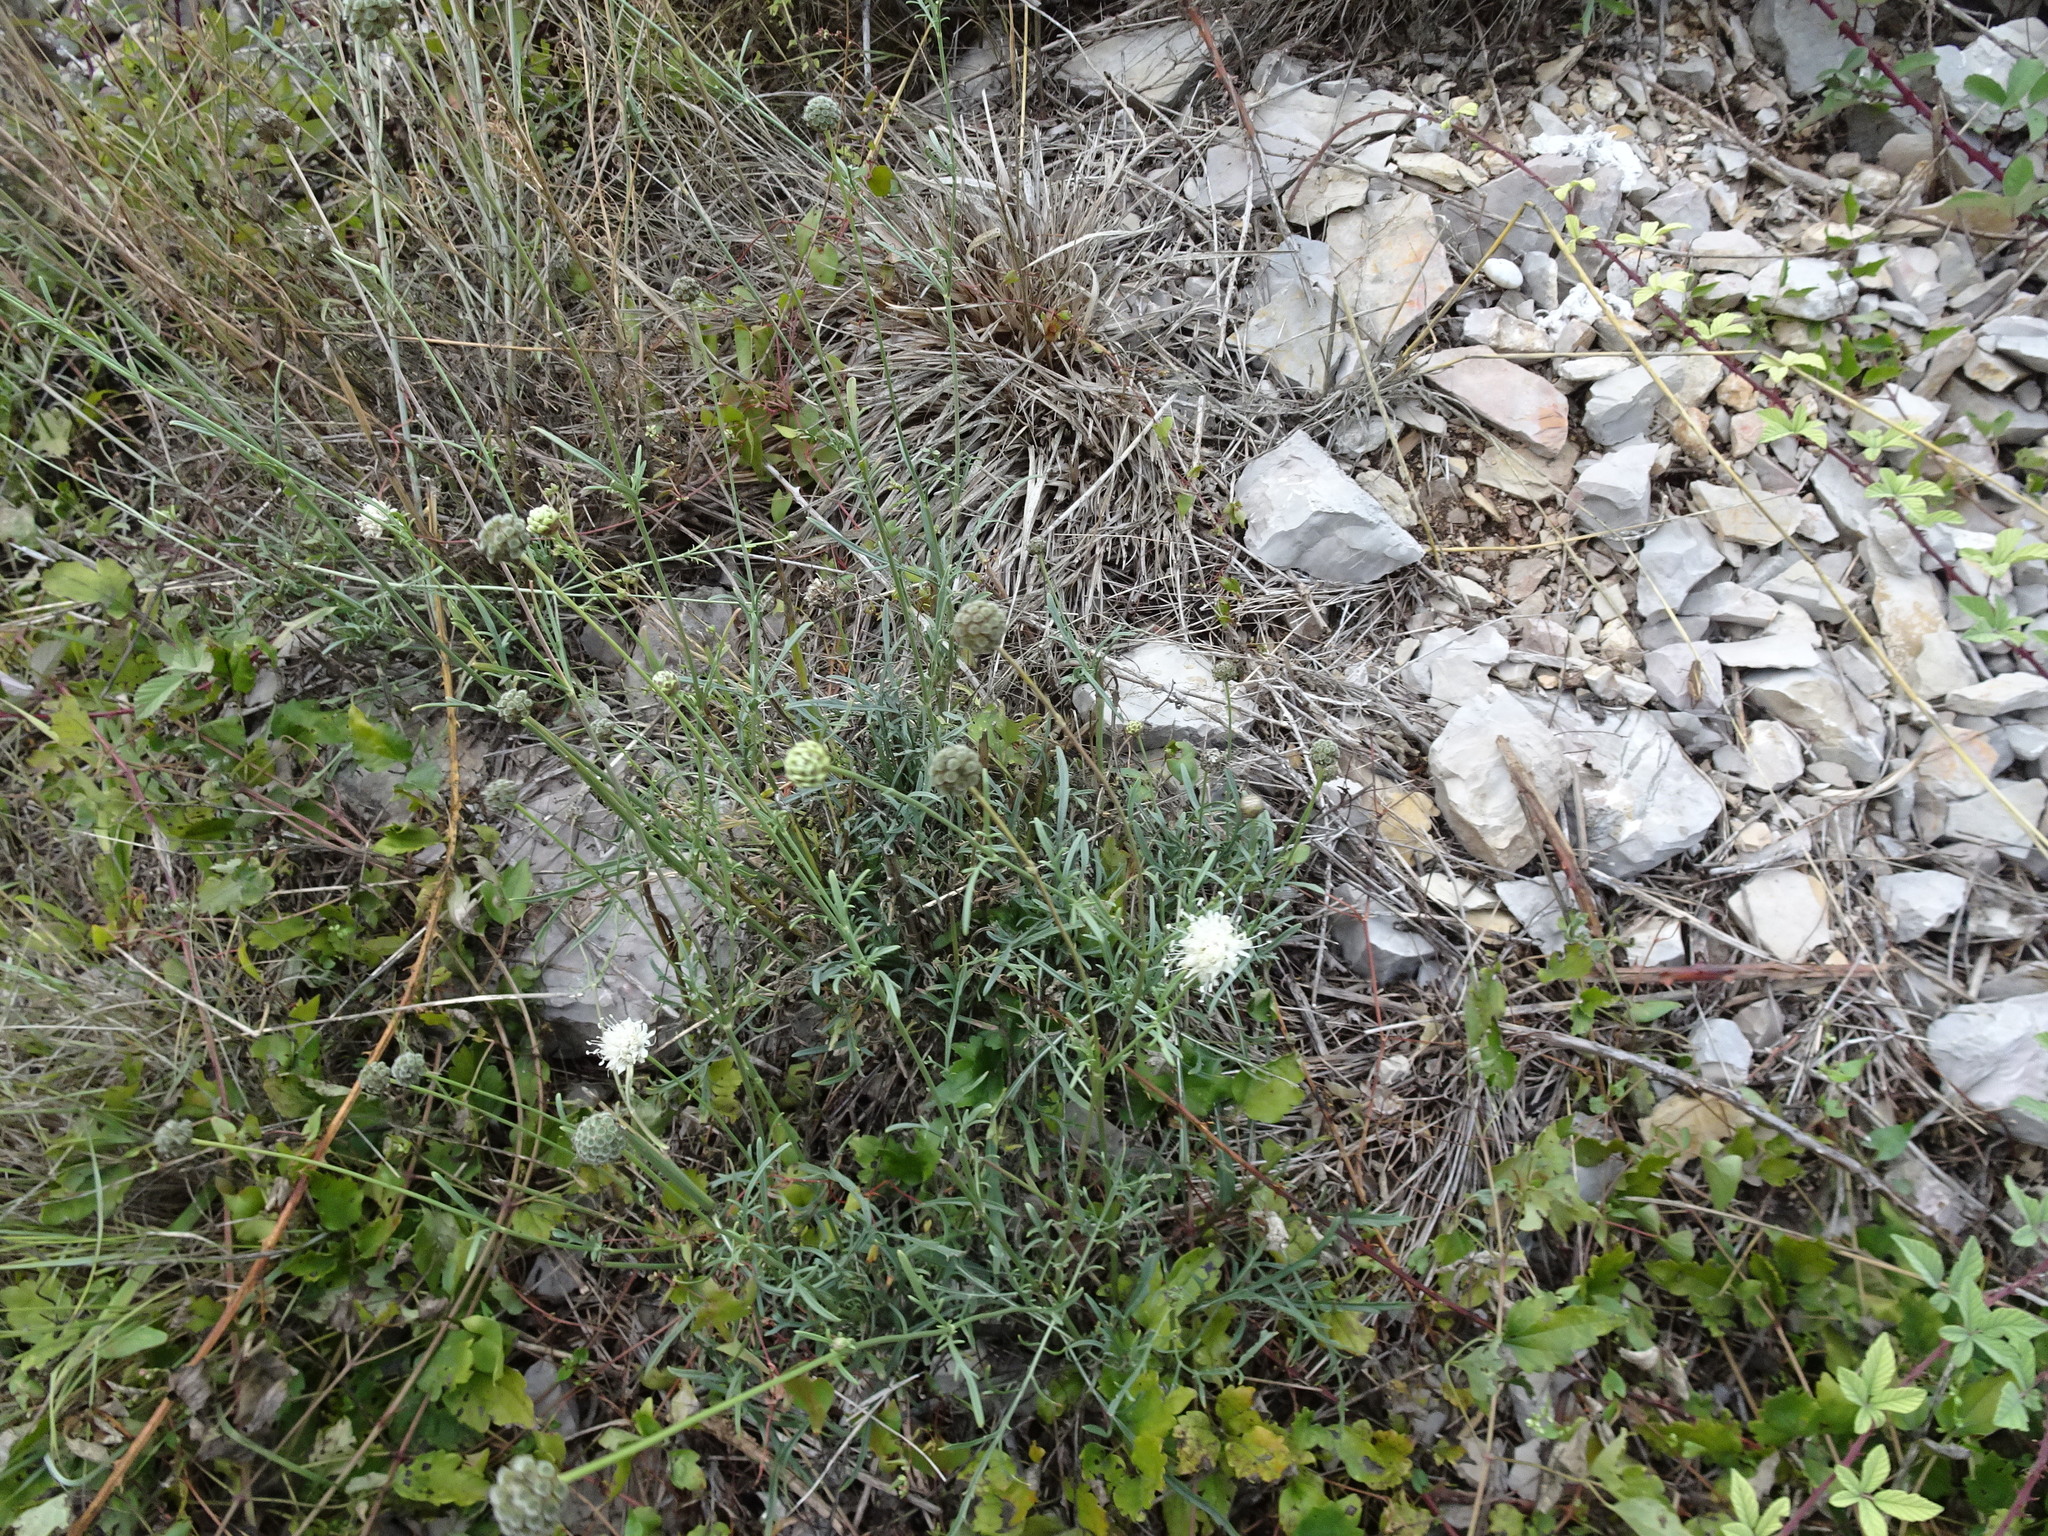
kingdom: Plantae
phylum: Tracheophyta
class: Magnoliopsida
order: Dipsacales
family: Caprifoliaceae
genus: Cephalaria
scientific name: Cephalaria leucantha
